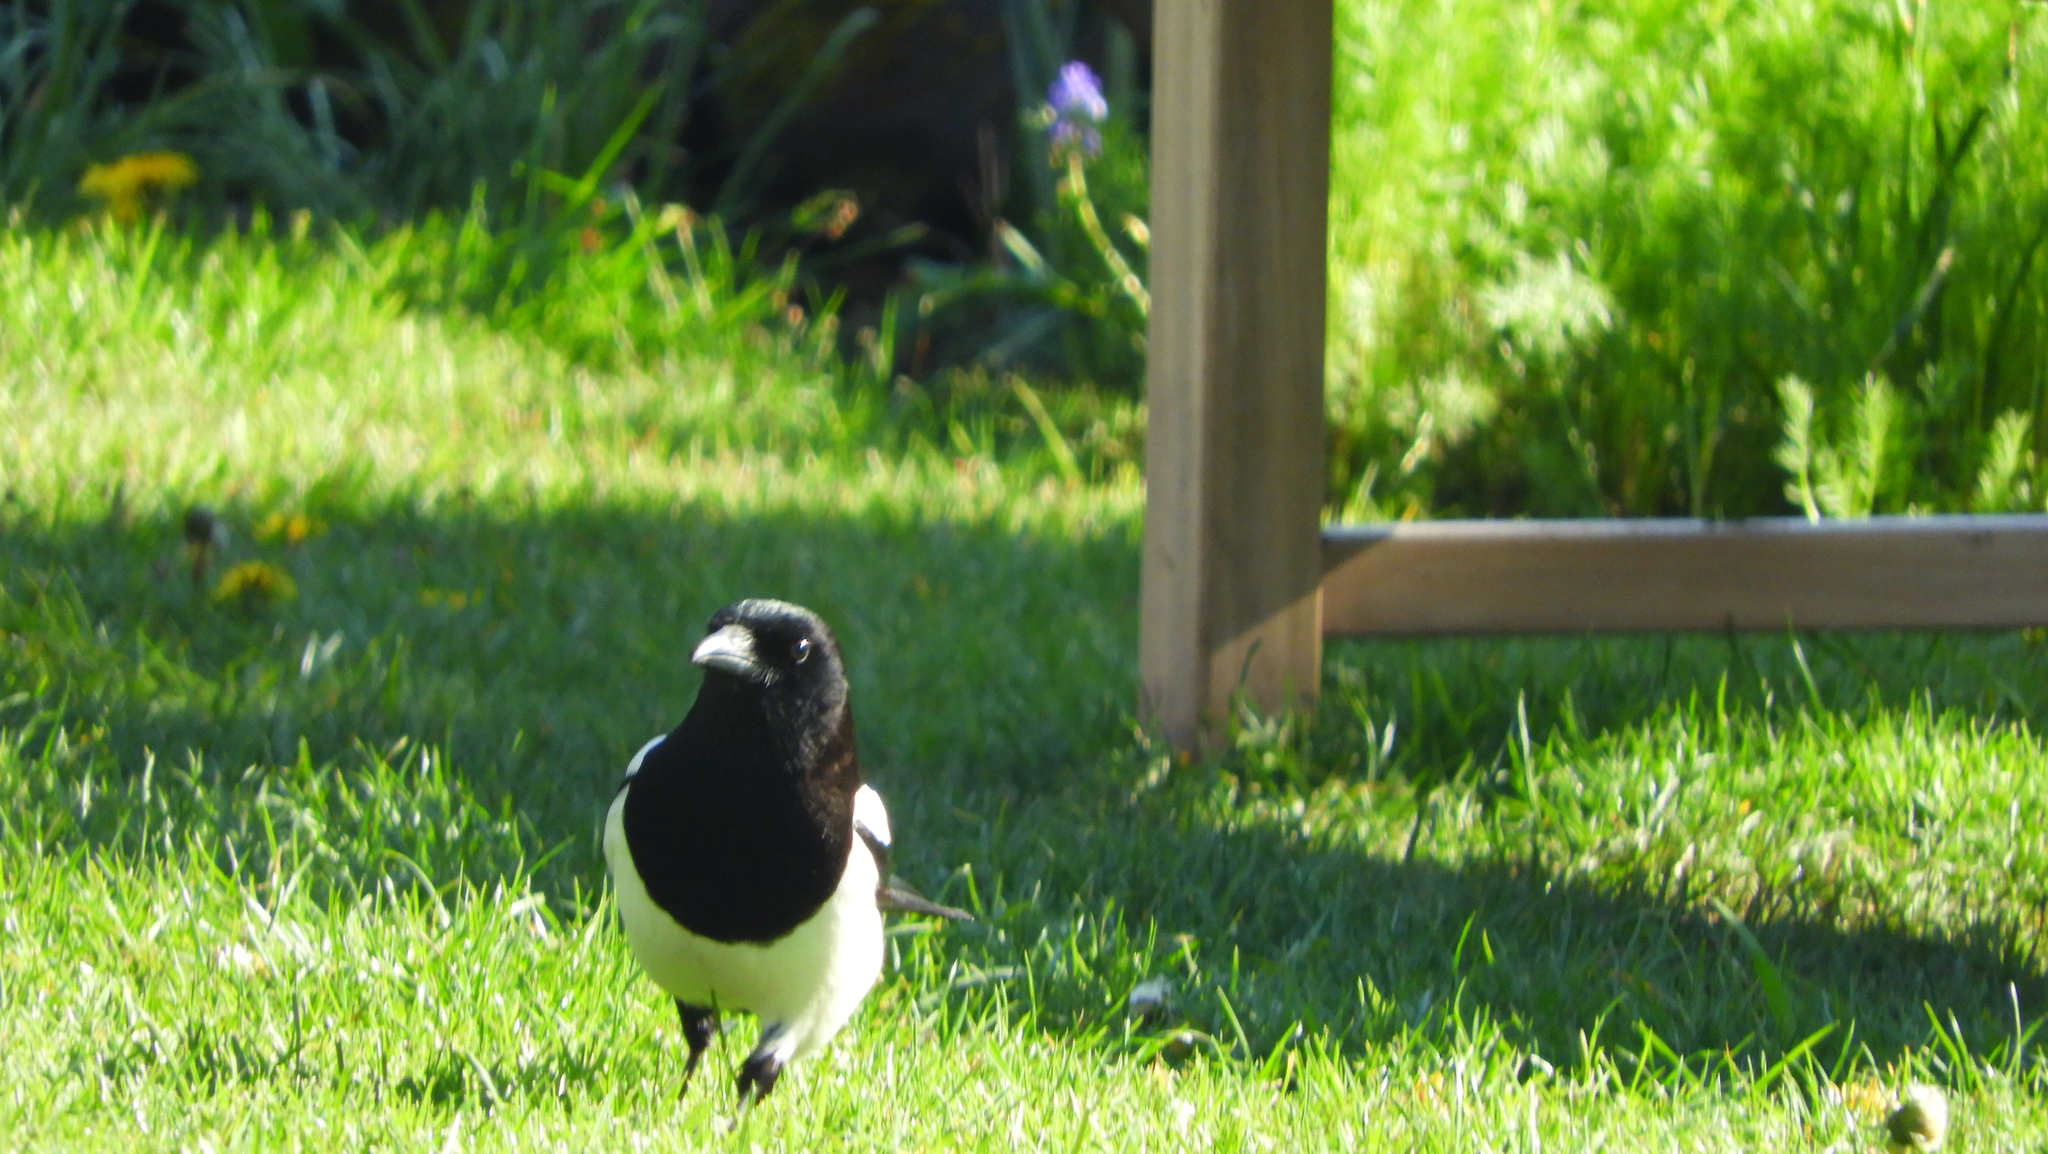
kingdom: Animalia
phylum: Chordata
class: Aves
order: Passeriformes
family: Corvidae
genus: Pica
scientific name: Pica pica
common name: Eurasian magpie
